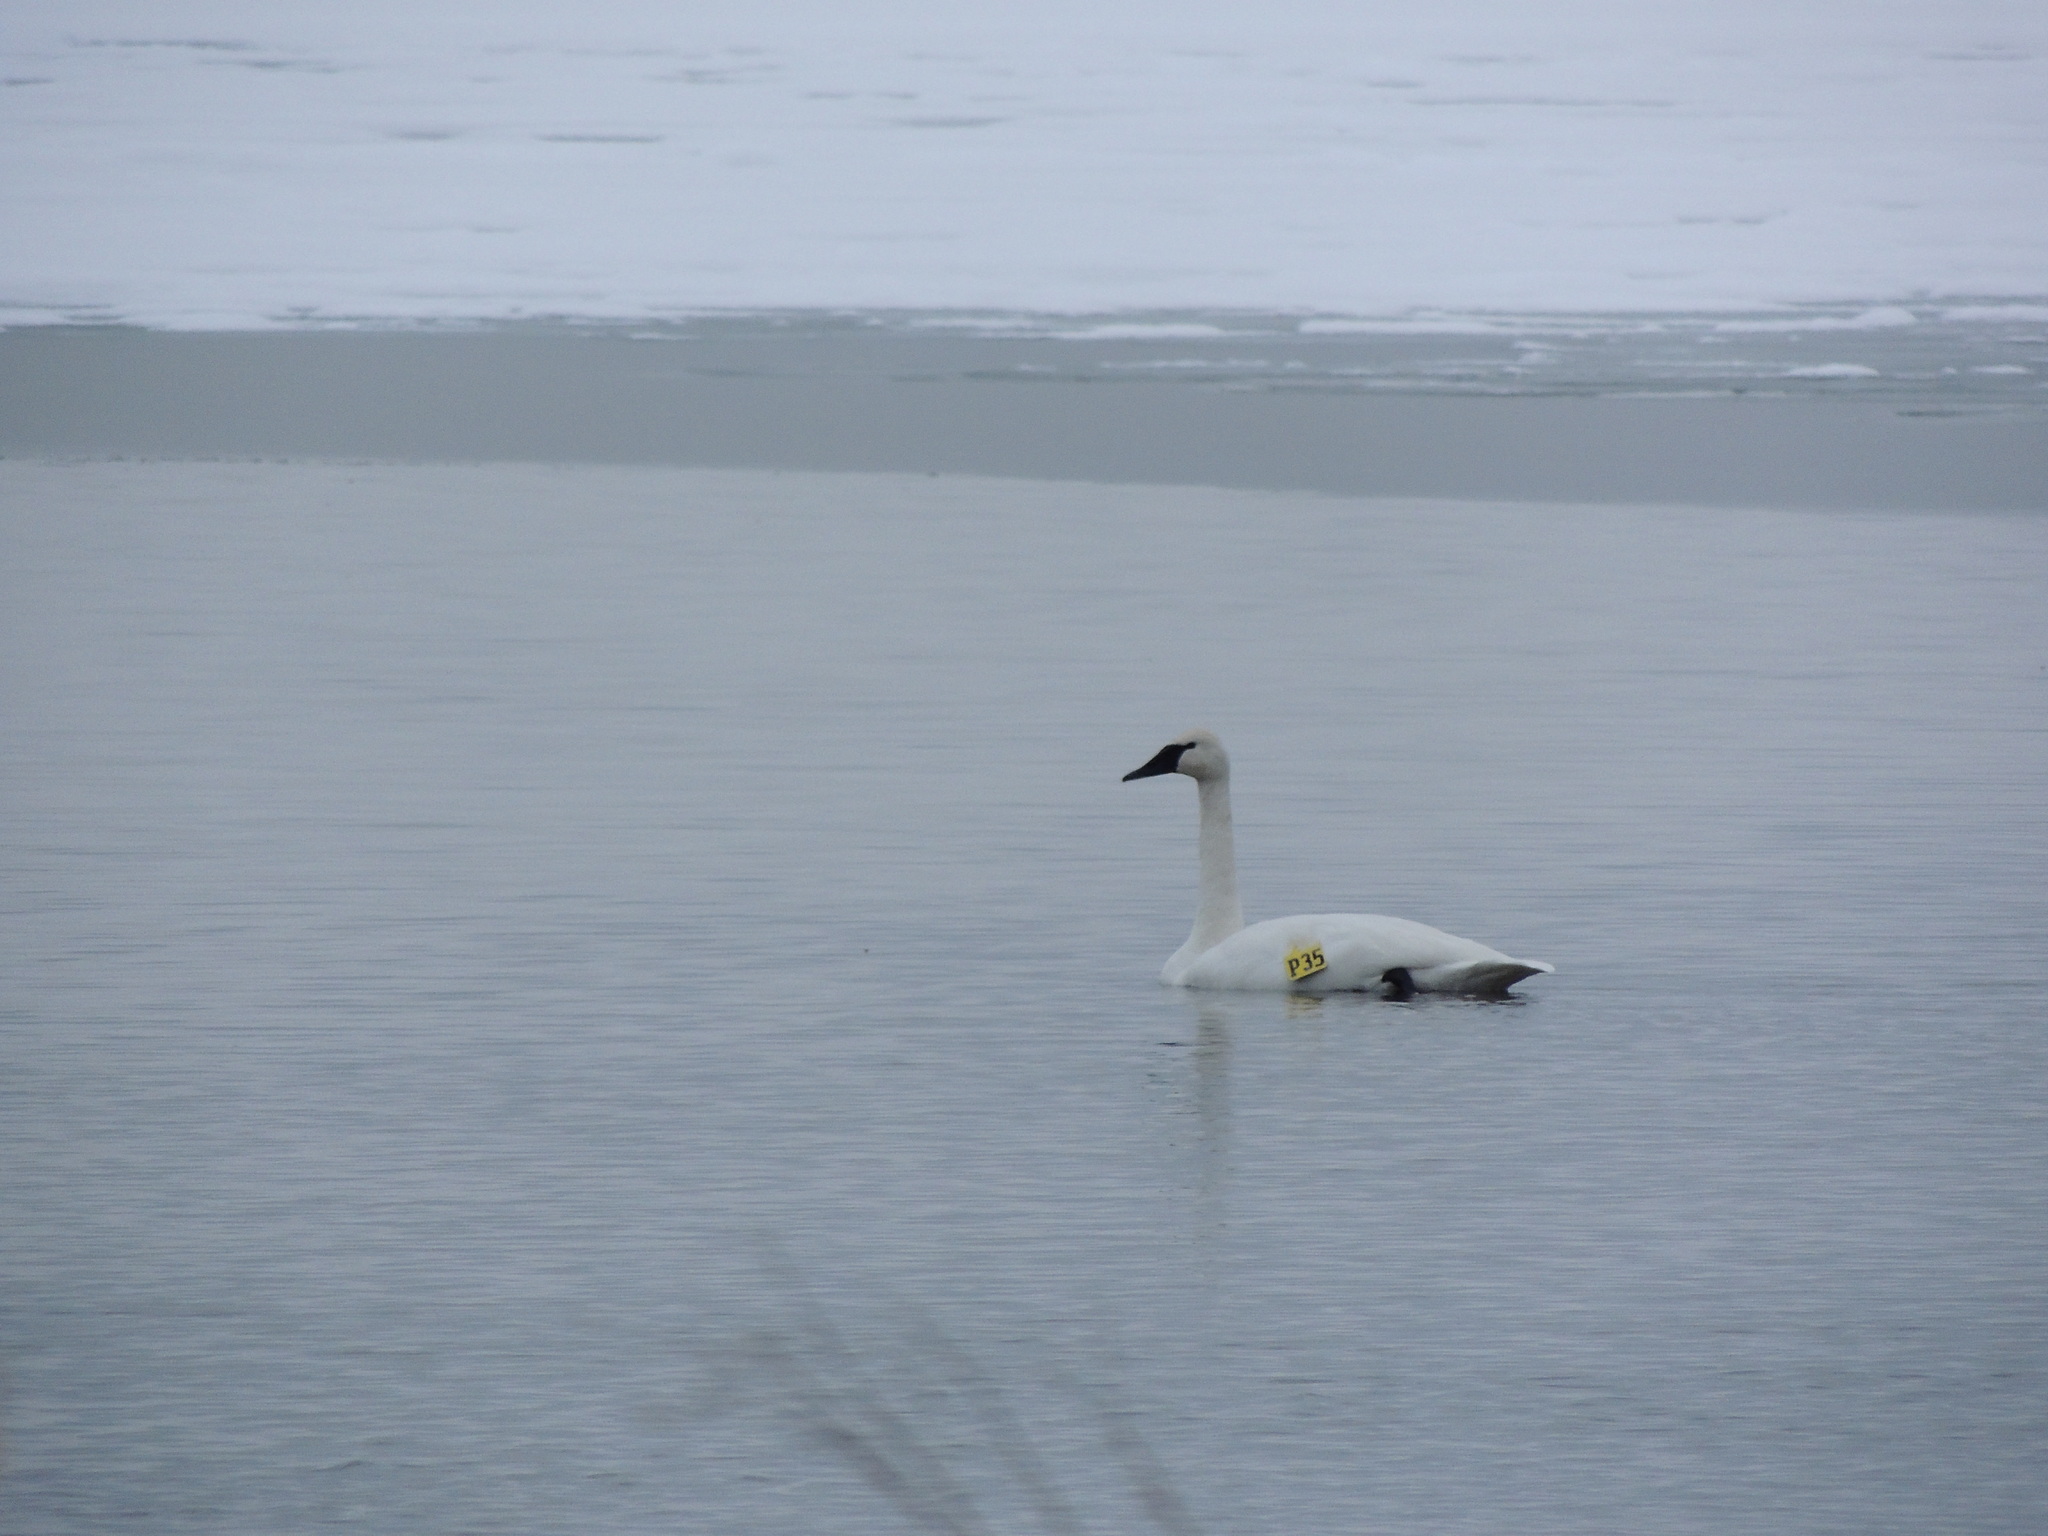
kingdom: Animalia
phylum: Chordata
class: Aves
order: Anseriformes
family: Anatidae
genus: Cygnus
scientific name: Cygnus buccinator
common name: Trumpeter swan
